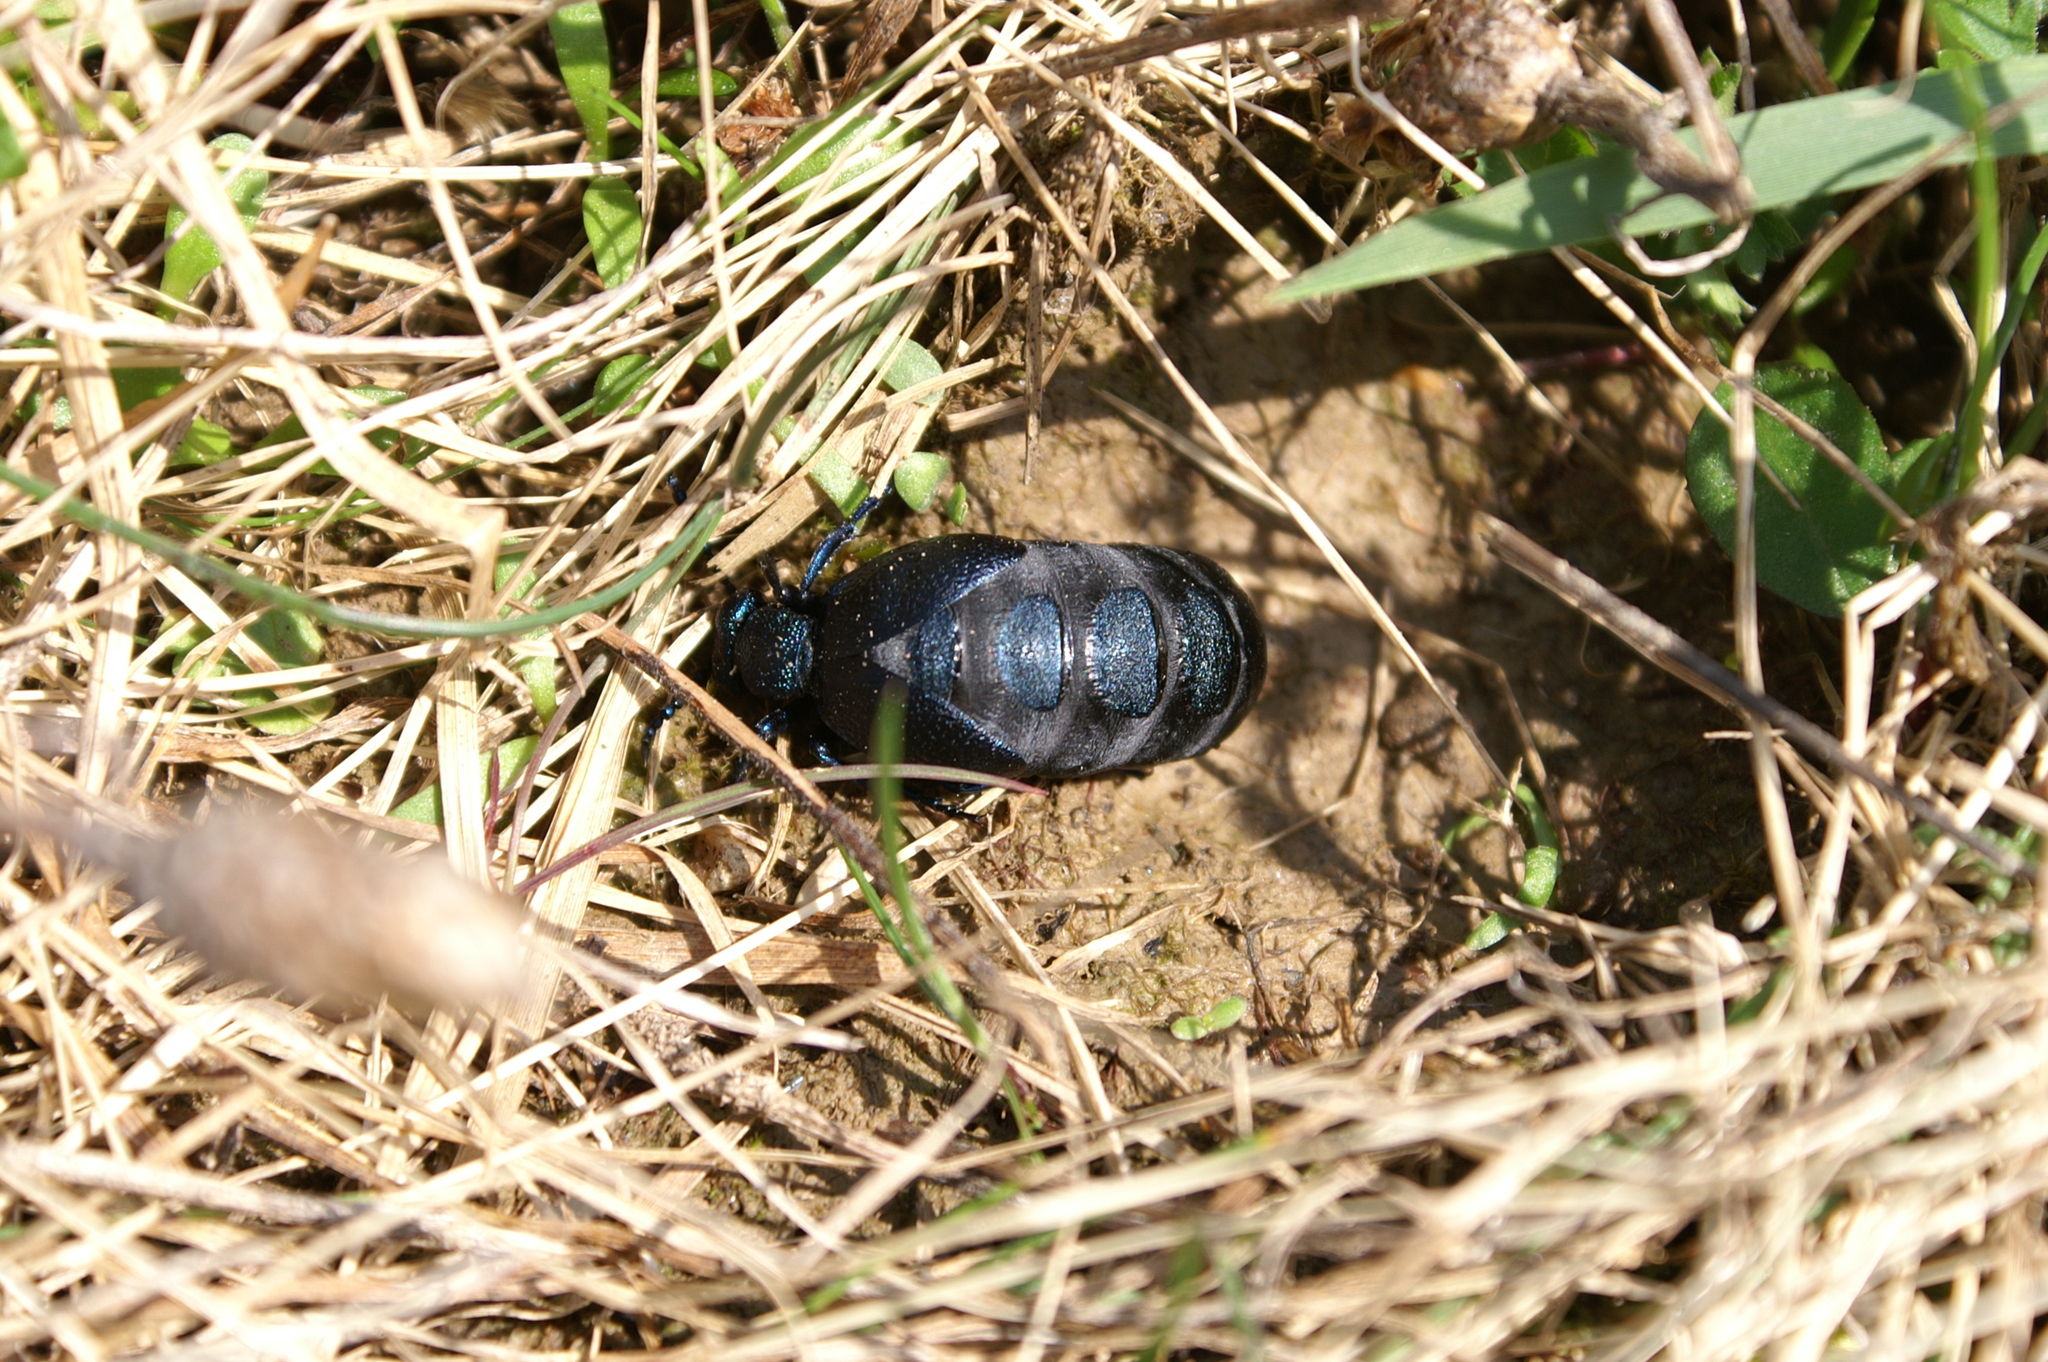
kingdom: Animalia
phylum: Arthropoda
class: Insecta
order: Coleoptera
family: Meloidae
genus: Meloe
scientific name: Meloe proscarabaeus
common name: Black oil-beetle
